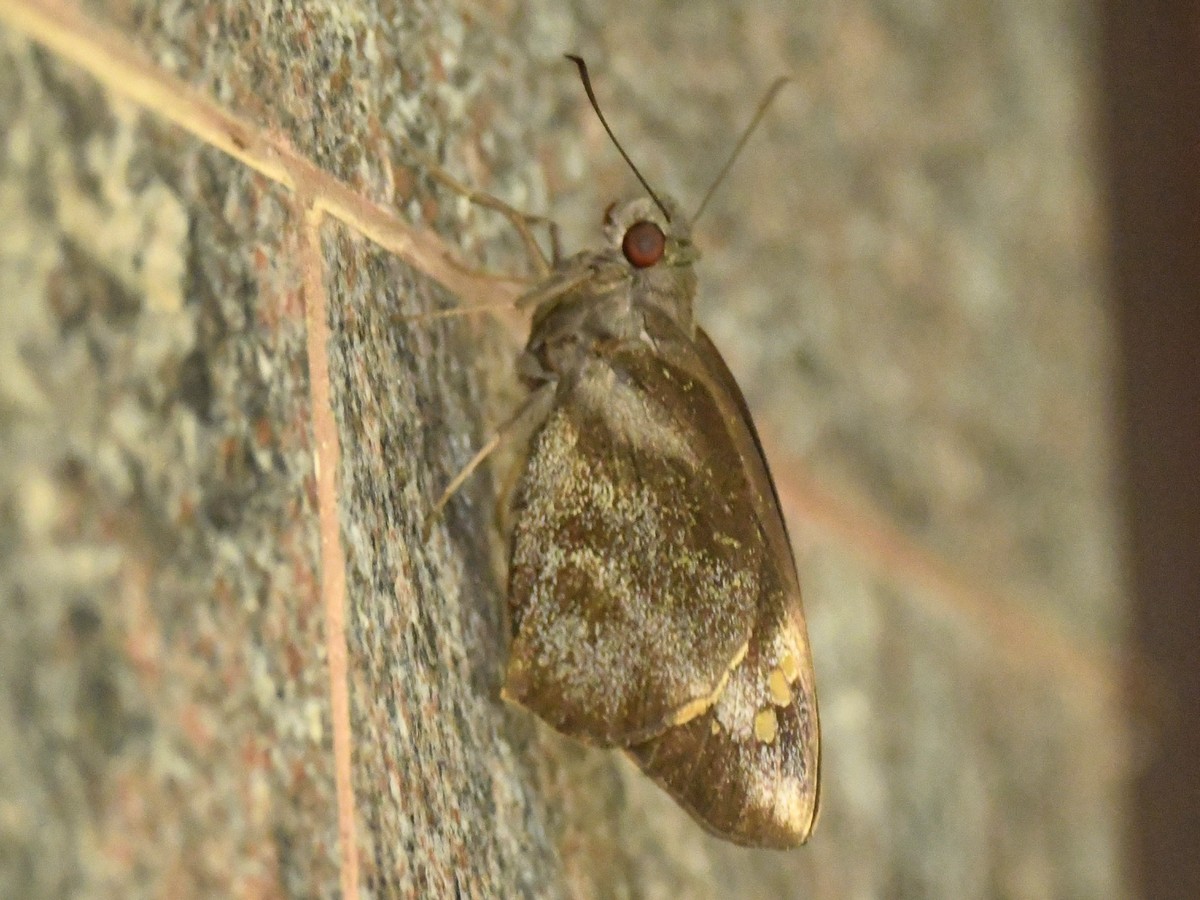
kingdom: Animalia
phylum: Arthropoda
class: Insecta
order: Lepidoptera
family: Hesperiidae
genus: Gangara
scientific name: Gangara thyrsis
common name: Giant redeye
